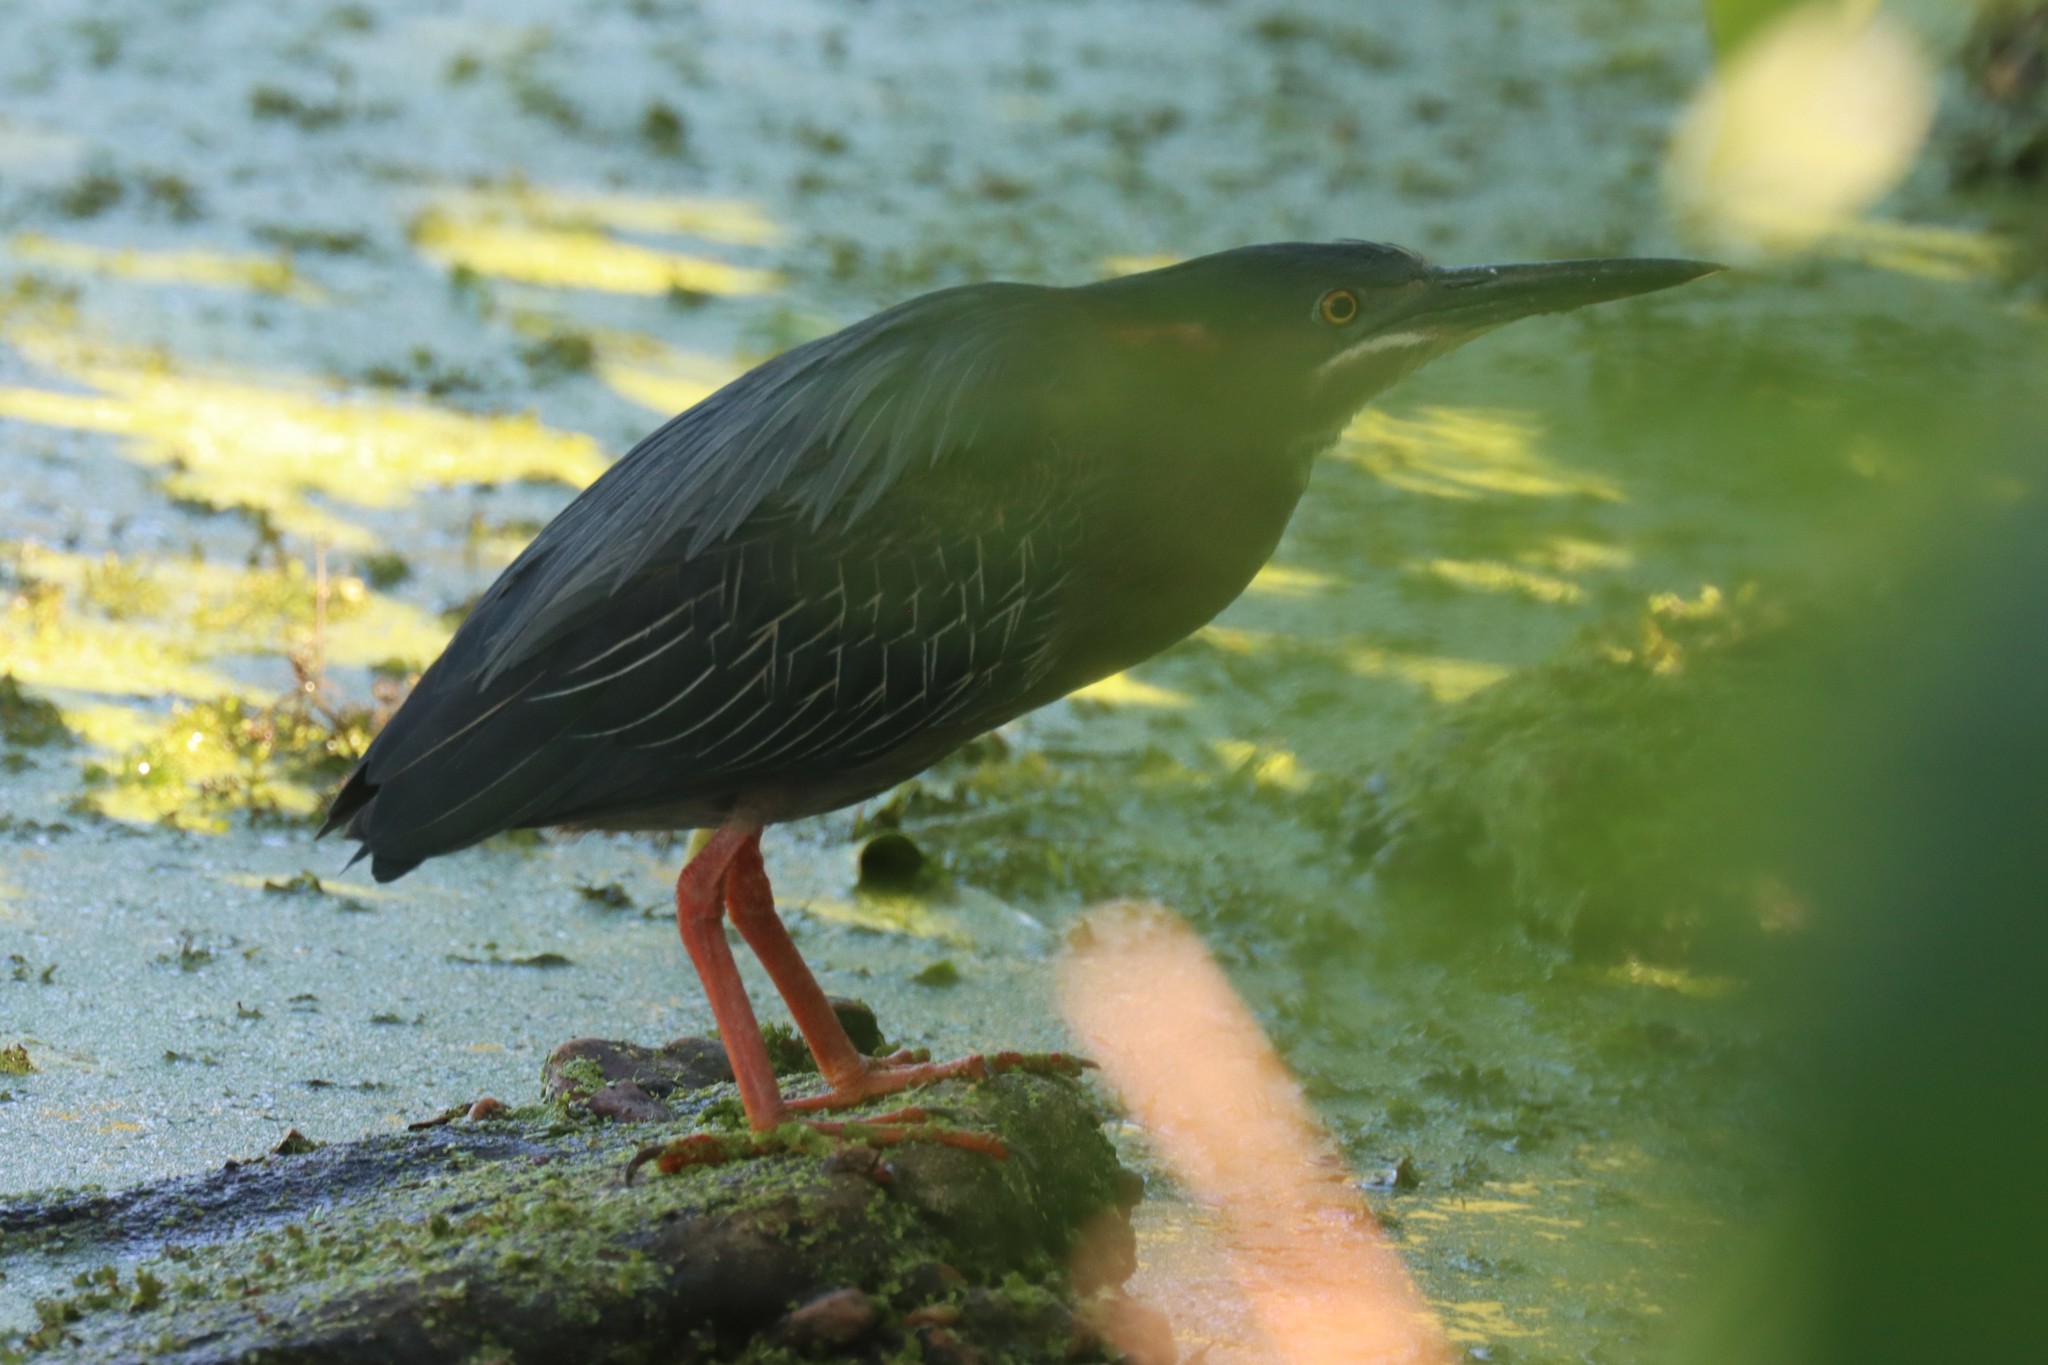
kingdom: Animalia
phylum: Chordata
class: Aves
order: Pelecaniformes
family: Ardeidae
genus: Butorides
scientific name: Butorides virescens
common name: Green heron
